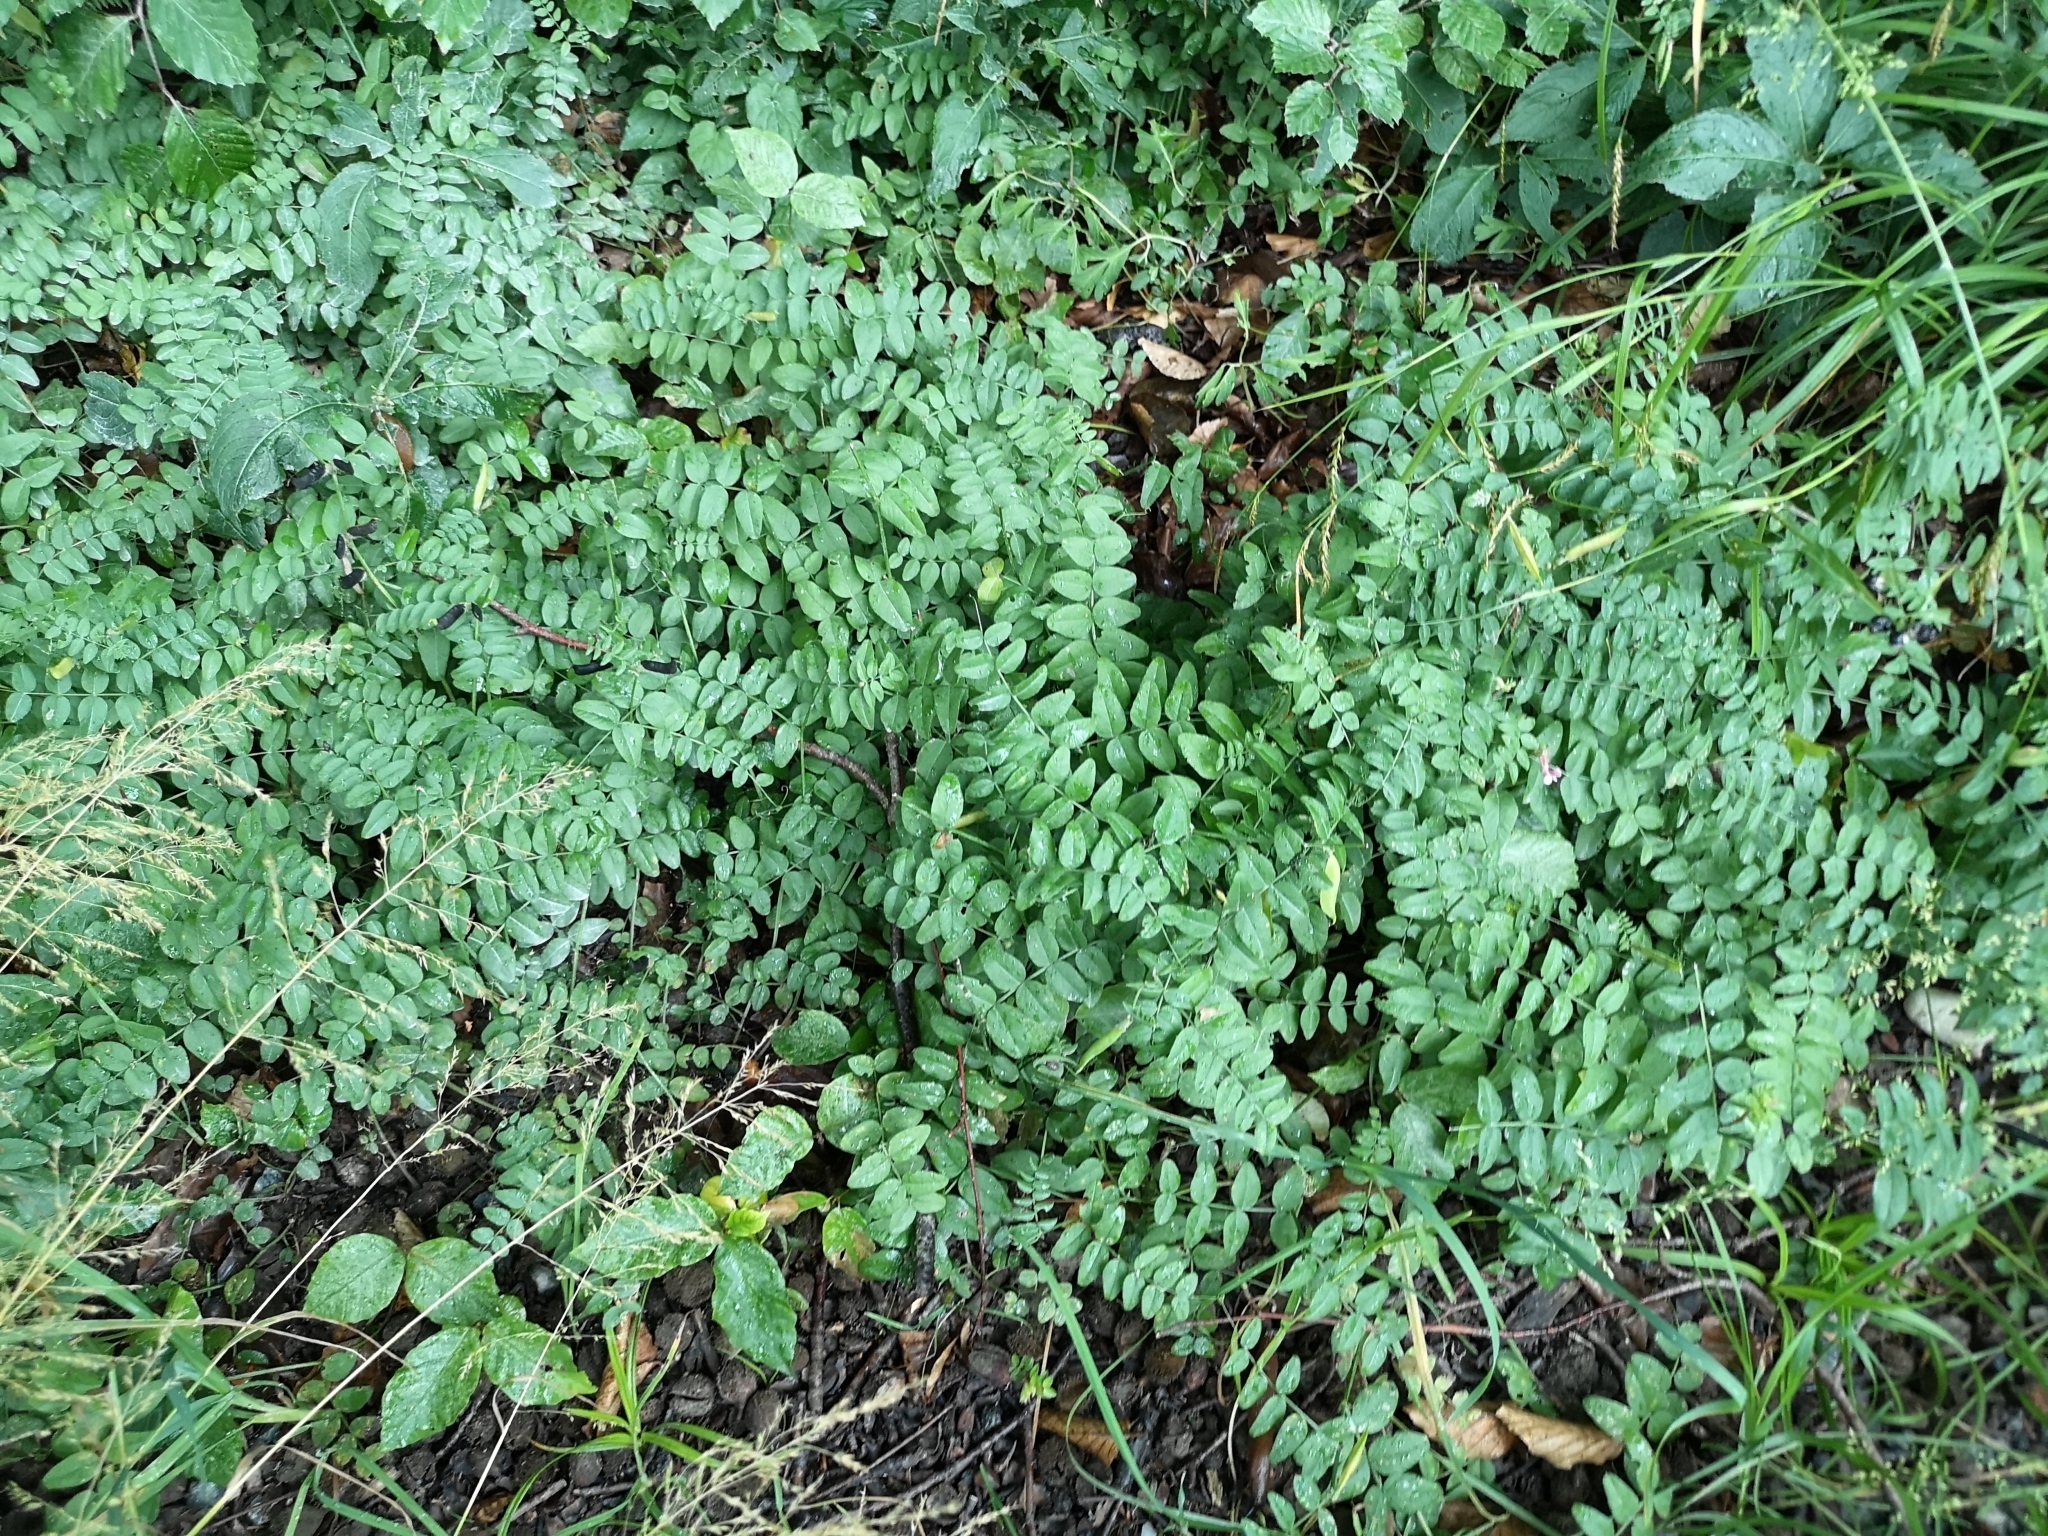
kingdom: Plantae
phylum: Tracheophyta
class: Magnoliopsida
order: Fabales
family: Fabaceae
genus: Vicia
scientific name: Vicia sepium
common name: Bush vetch
